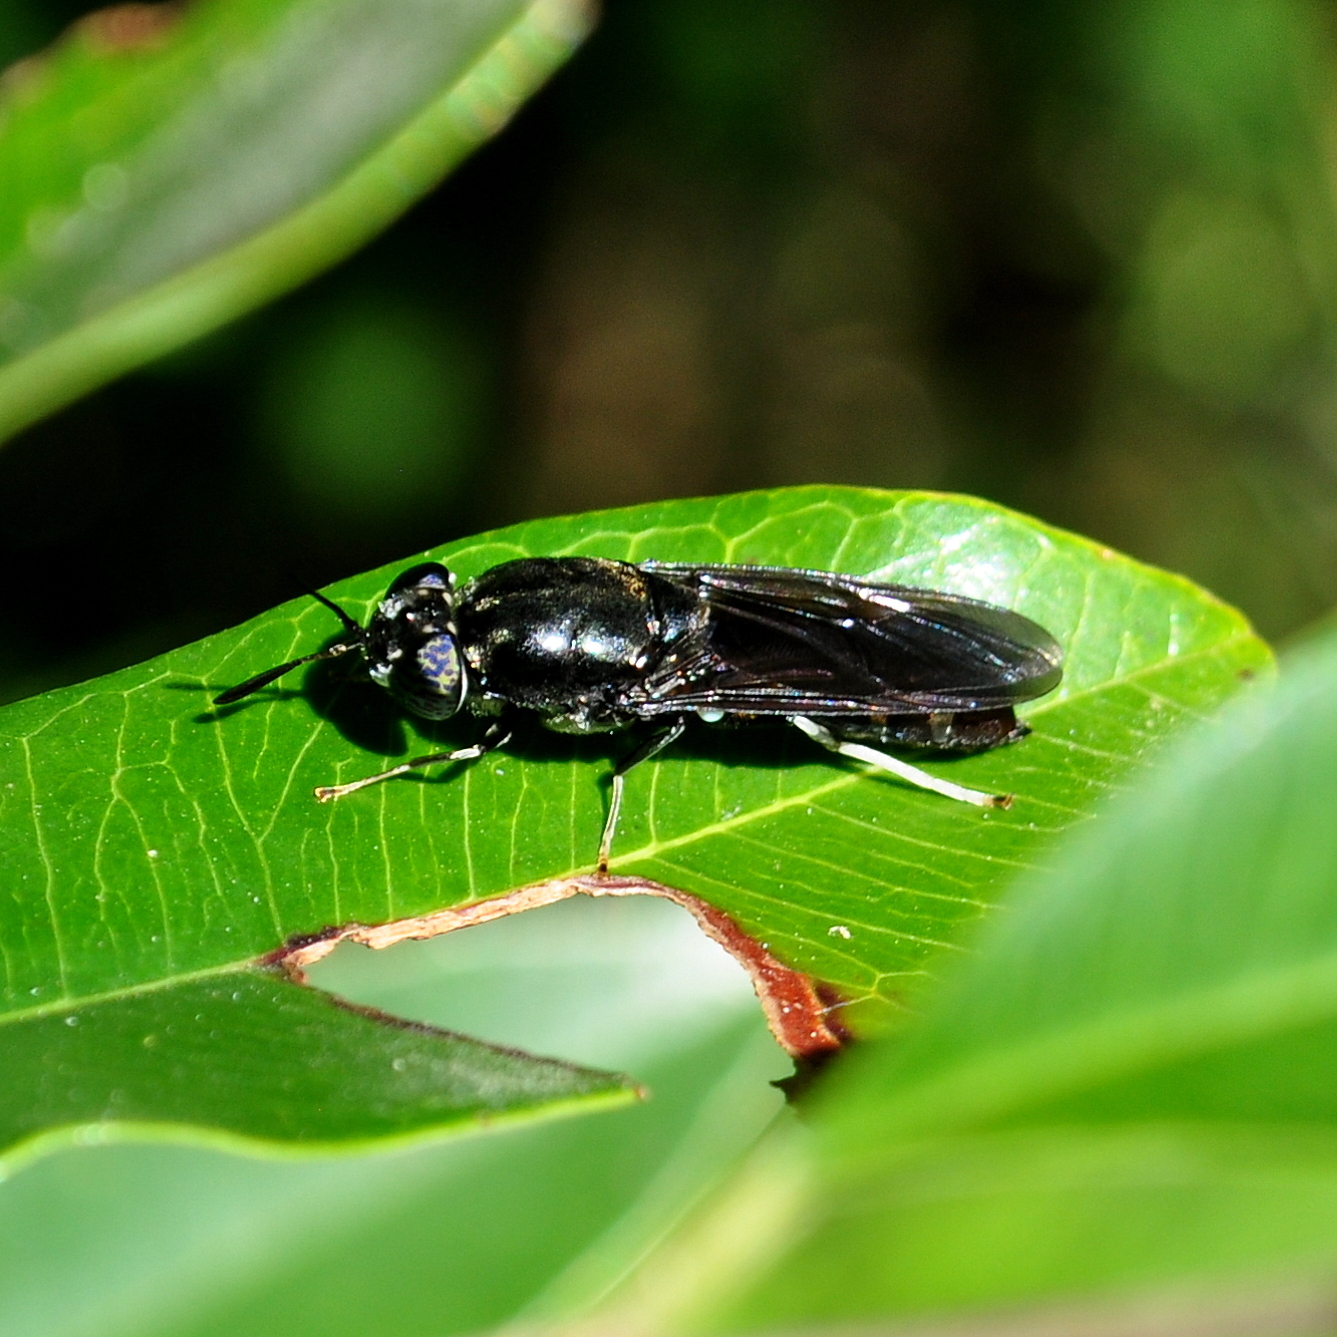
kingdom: Animalia
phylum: Arthropoda
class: Insecta
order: Diptera
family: Stratiomyidae
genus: Hermetia
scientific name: Hermetia illucens
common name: Black soldier fly
